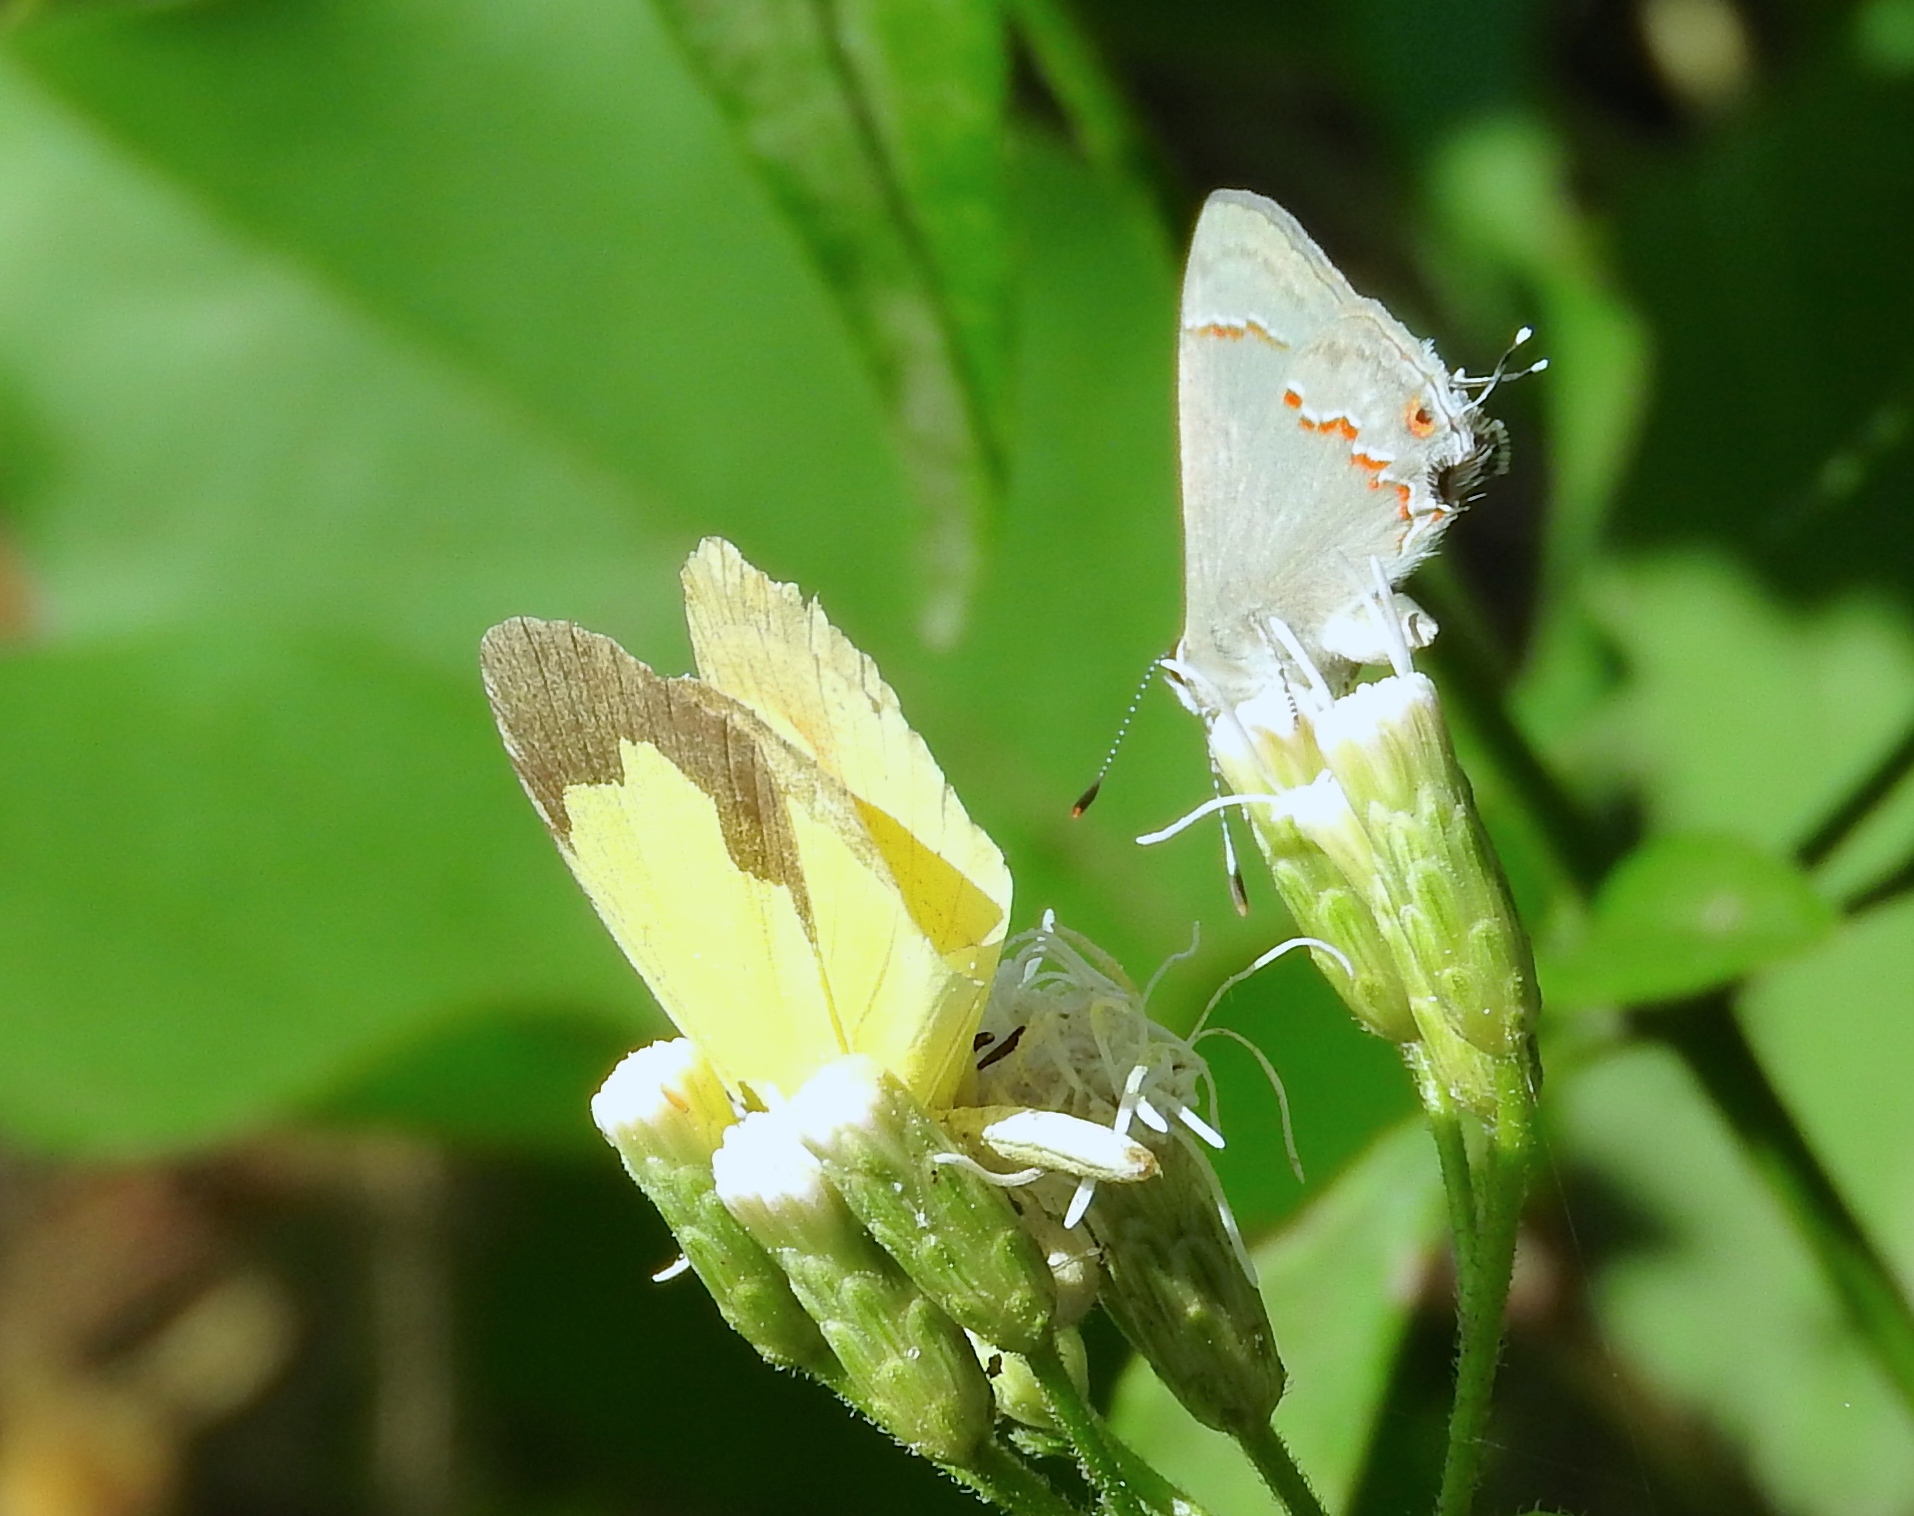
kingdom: Animalia
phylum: Arthropoda
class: Insecta
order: Lepidoptera
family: Lycaenidae
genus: Thecla
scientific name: Thecla bebrycia
